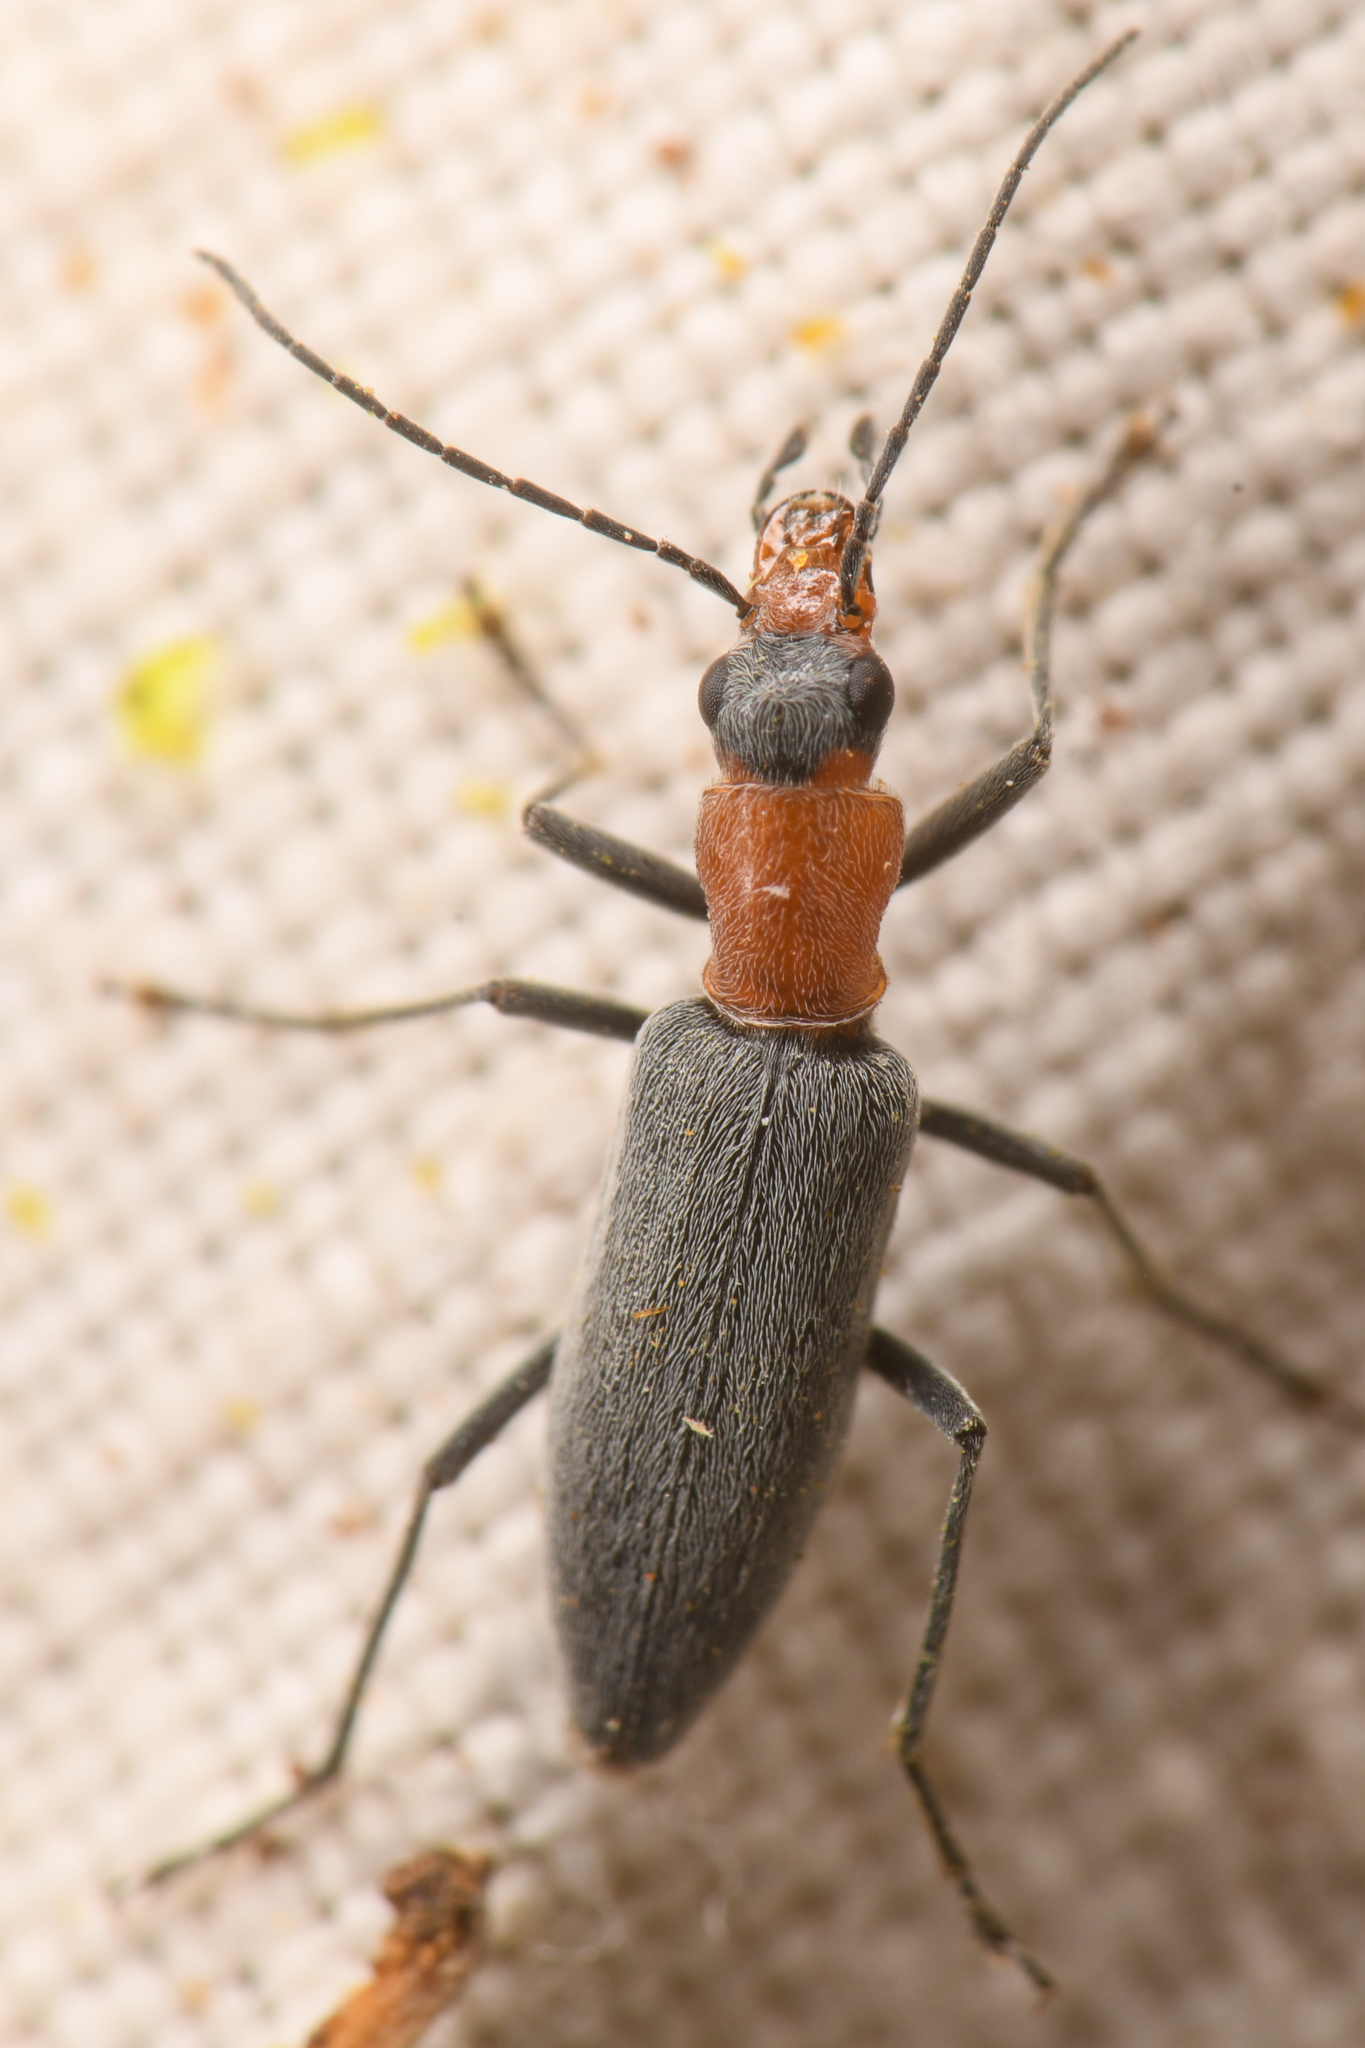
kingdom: Animalia
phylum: Arthropoda
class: Insecta
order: Coleoptera
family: Oedemeridae
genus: Rhinoplatia
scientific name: Rhinoplatia ruficollis
